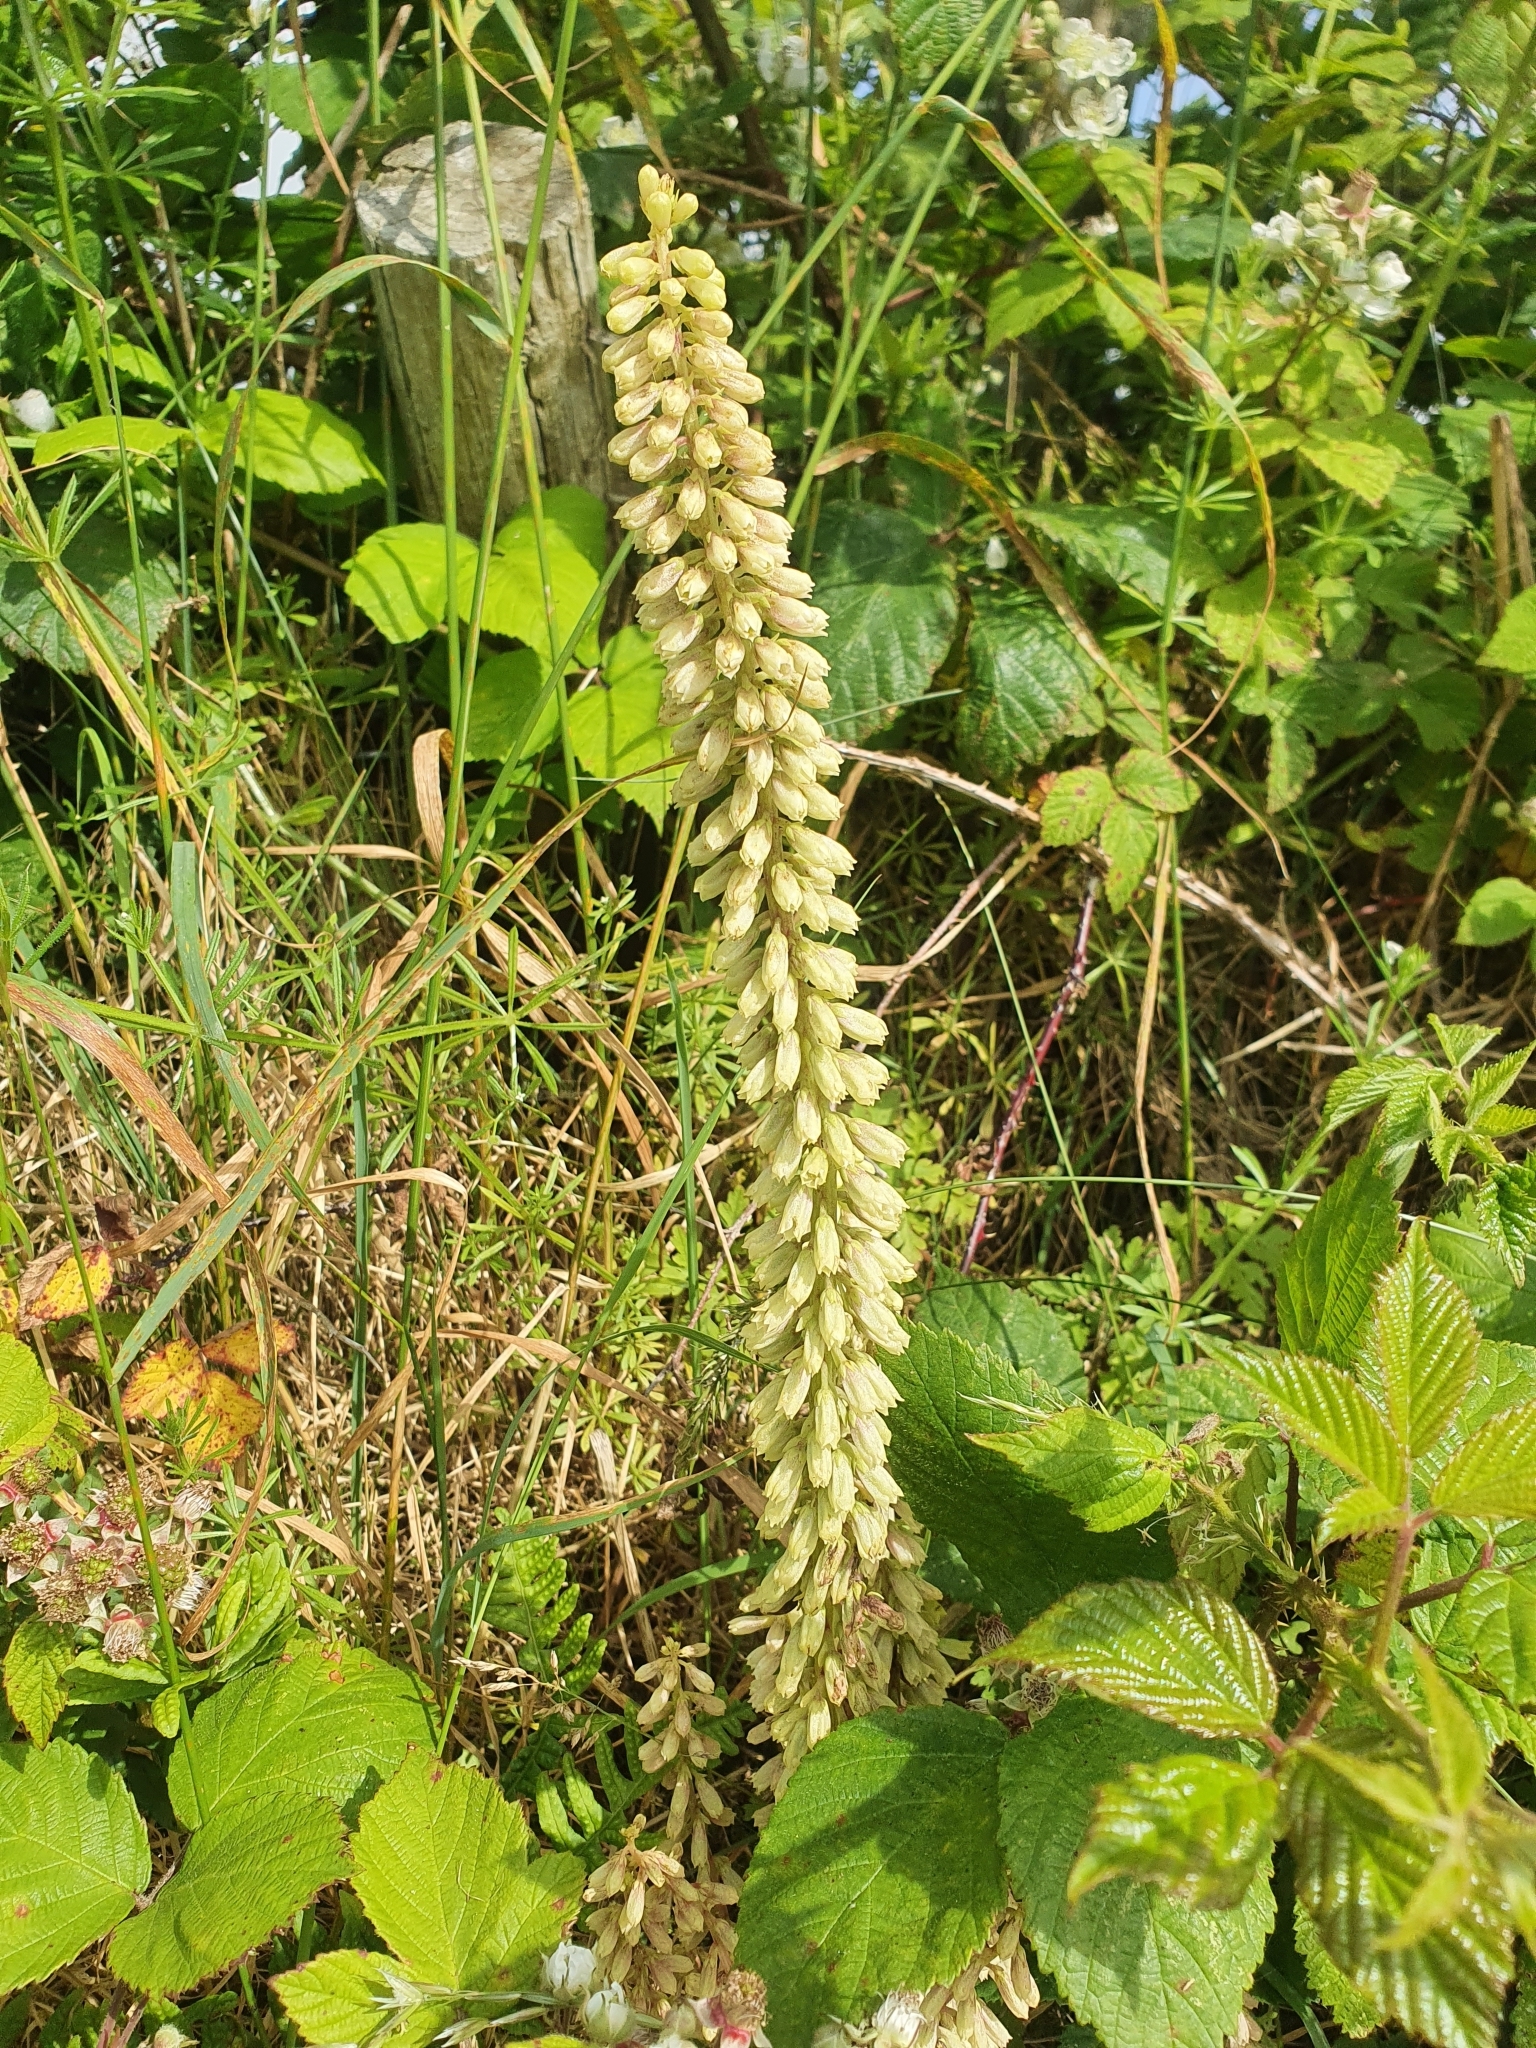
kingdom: Plantae
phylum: Tracheophyta
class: Magnoliopsida
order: Saxifragales
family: Crassulaceae
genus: Umbilicus
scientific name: Umbilicus rupestris
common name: Navelwort
